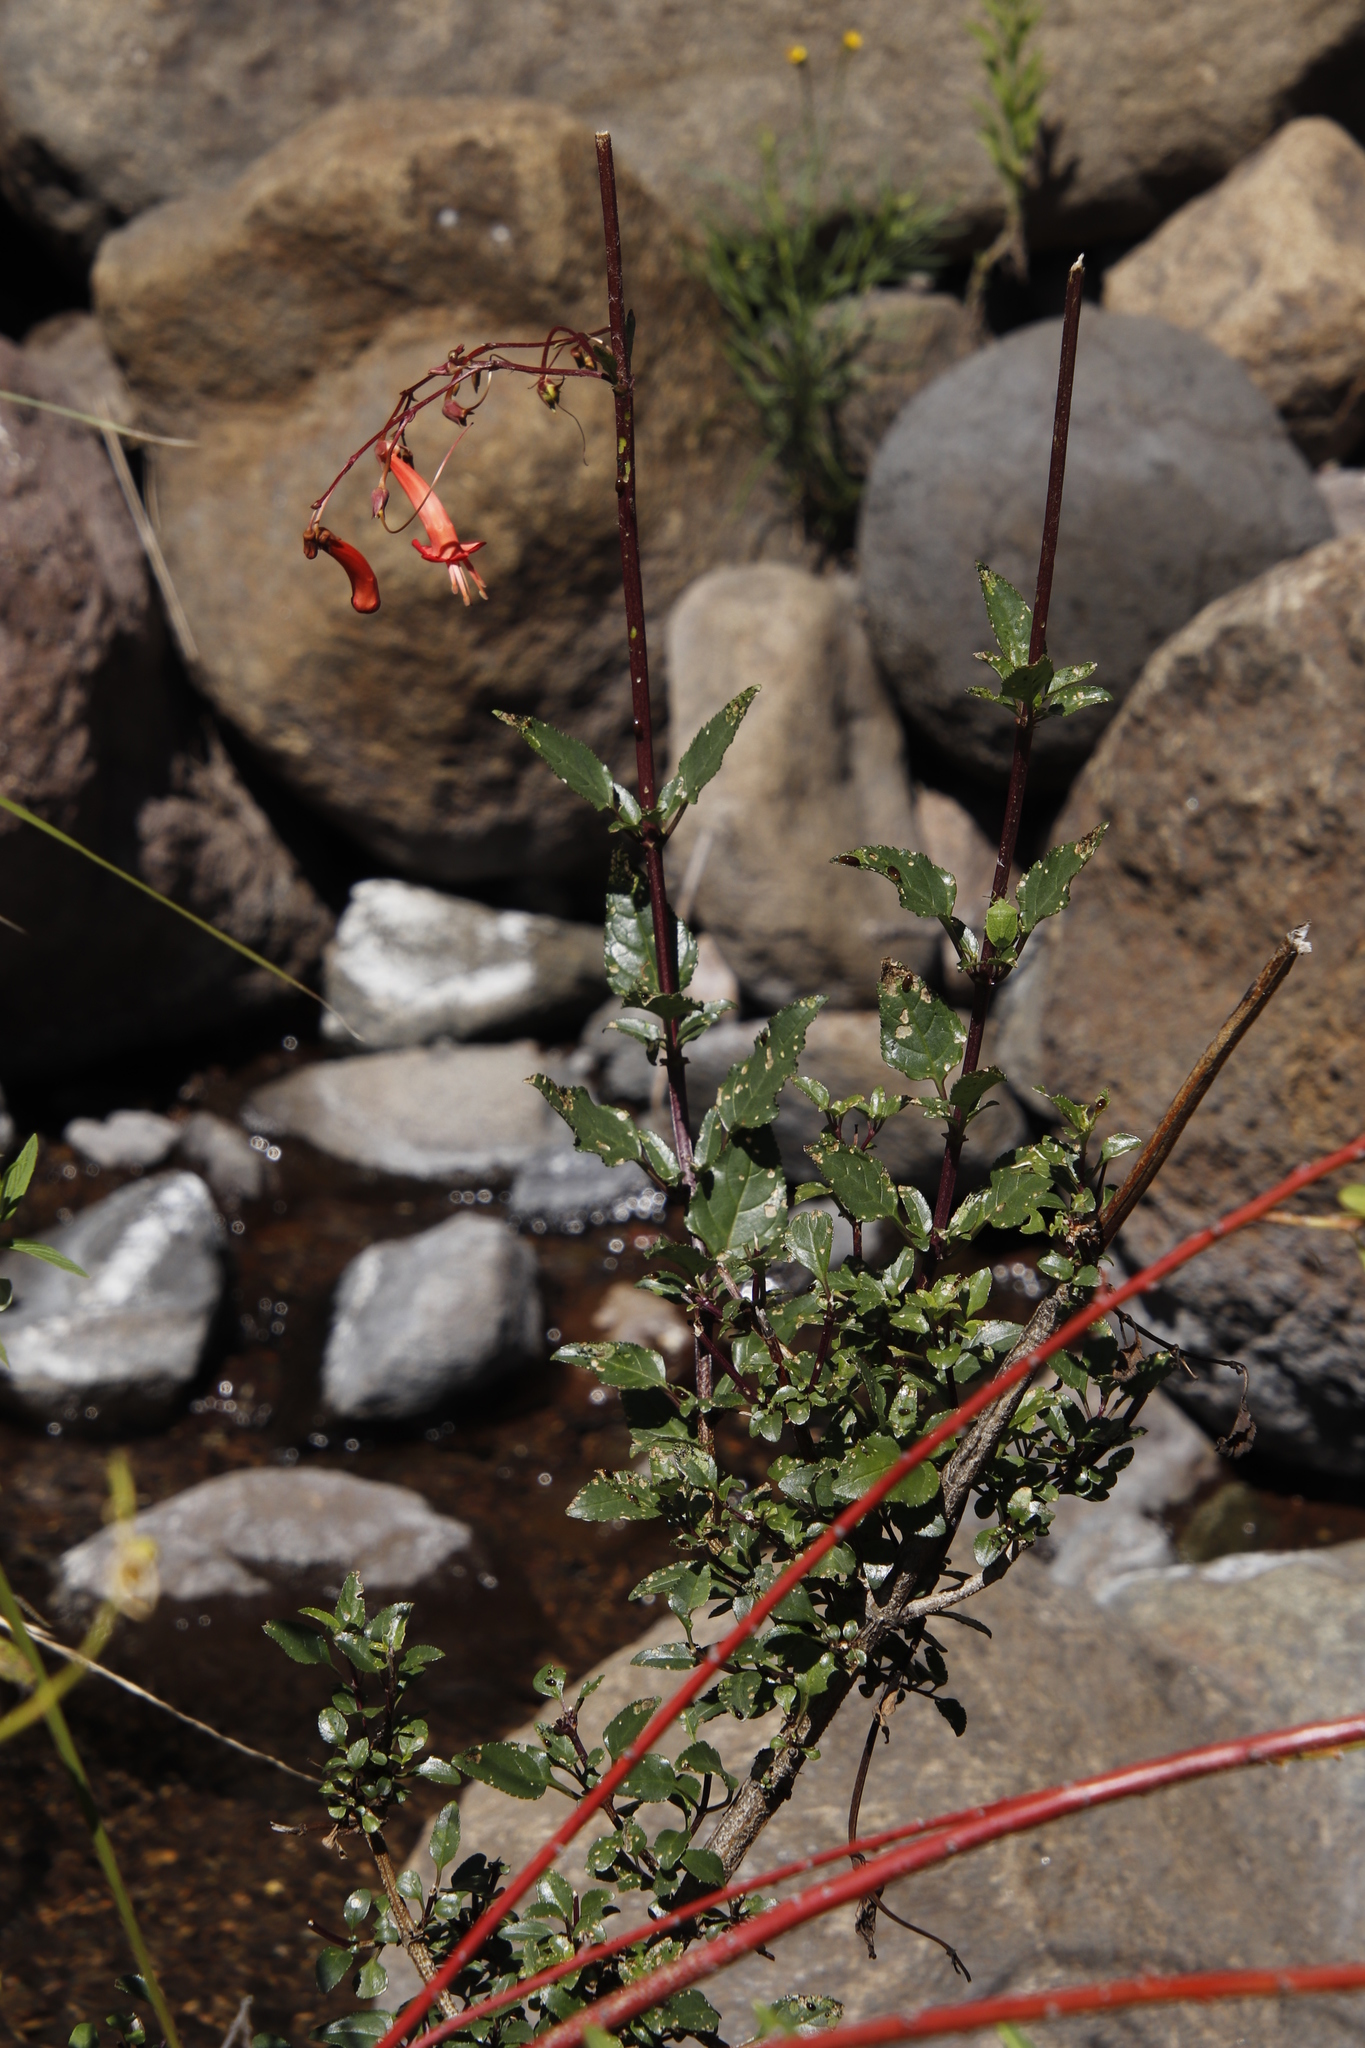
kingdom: Plantae
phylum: Tracheophyta
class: Magnoliopsida
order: Lamiales
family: Scrophulariaceae
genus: Phygelius
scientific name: Phygelius capensis
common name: Cape figwort
